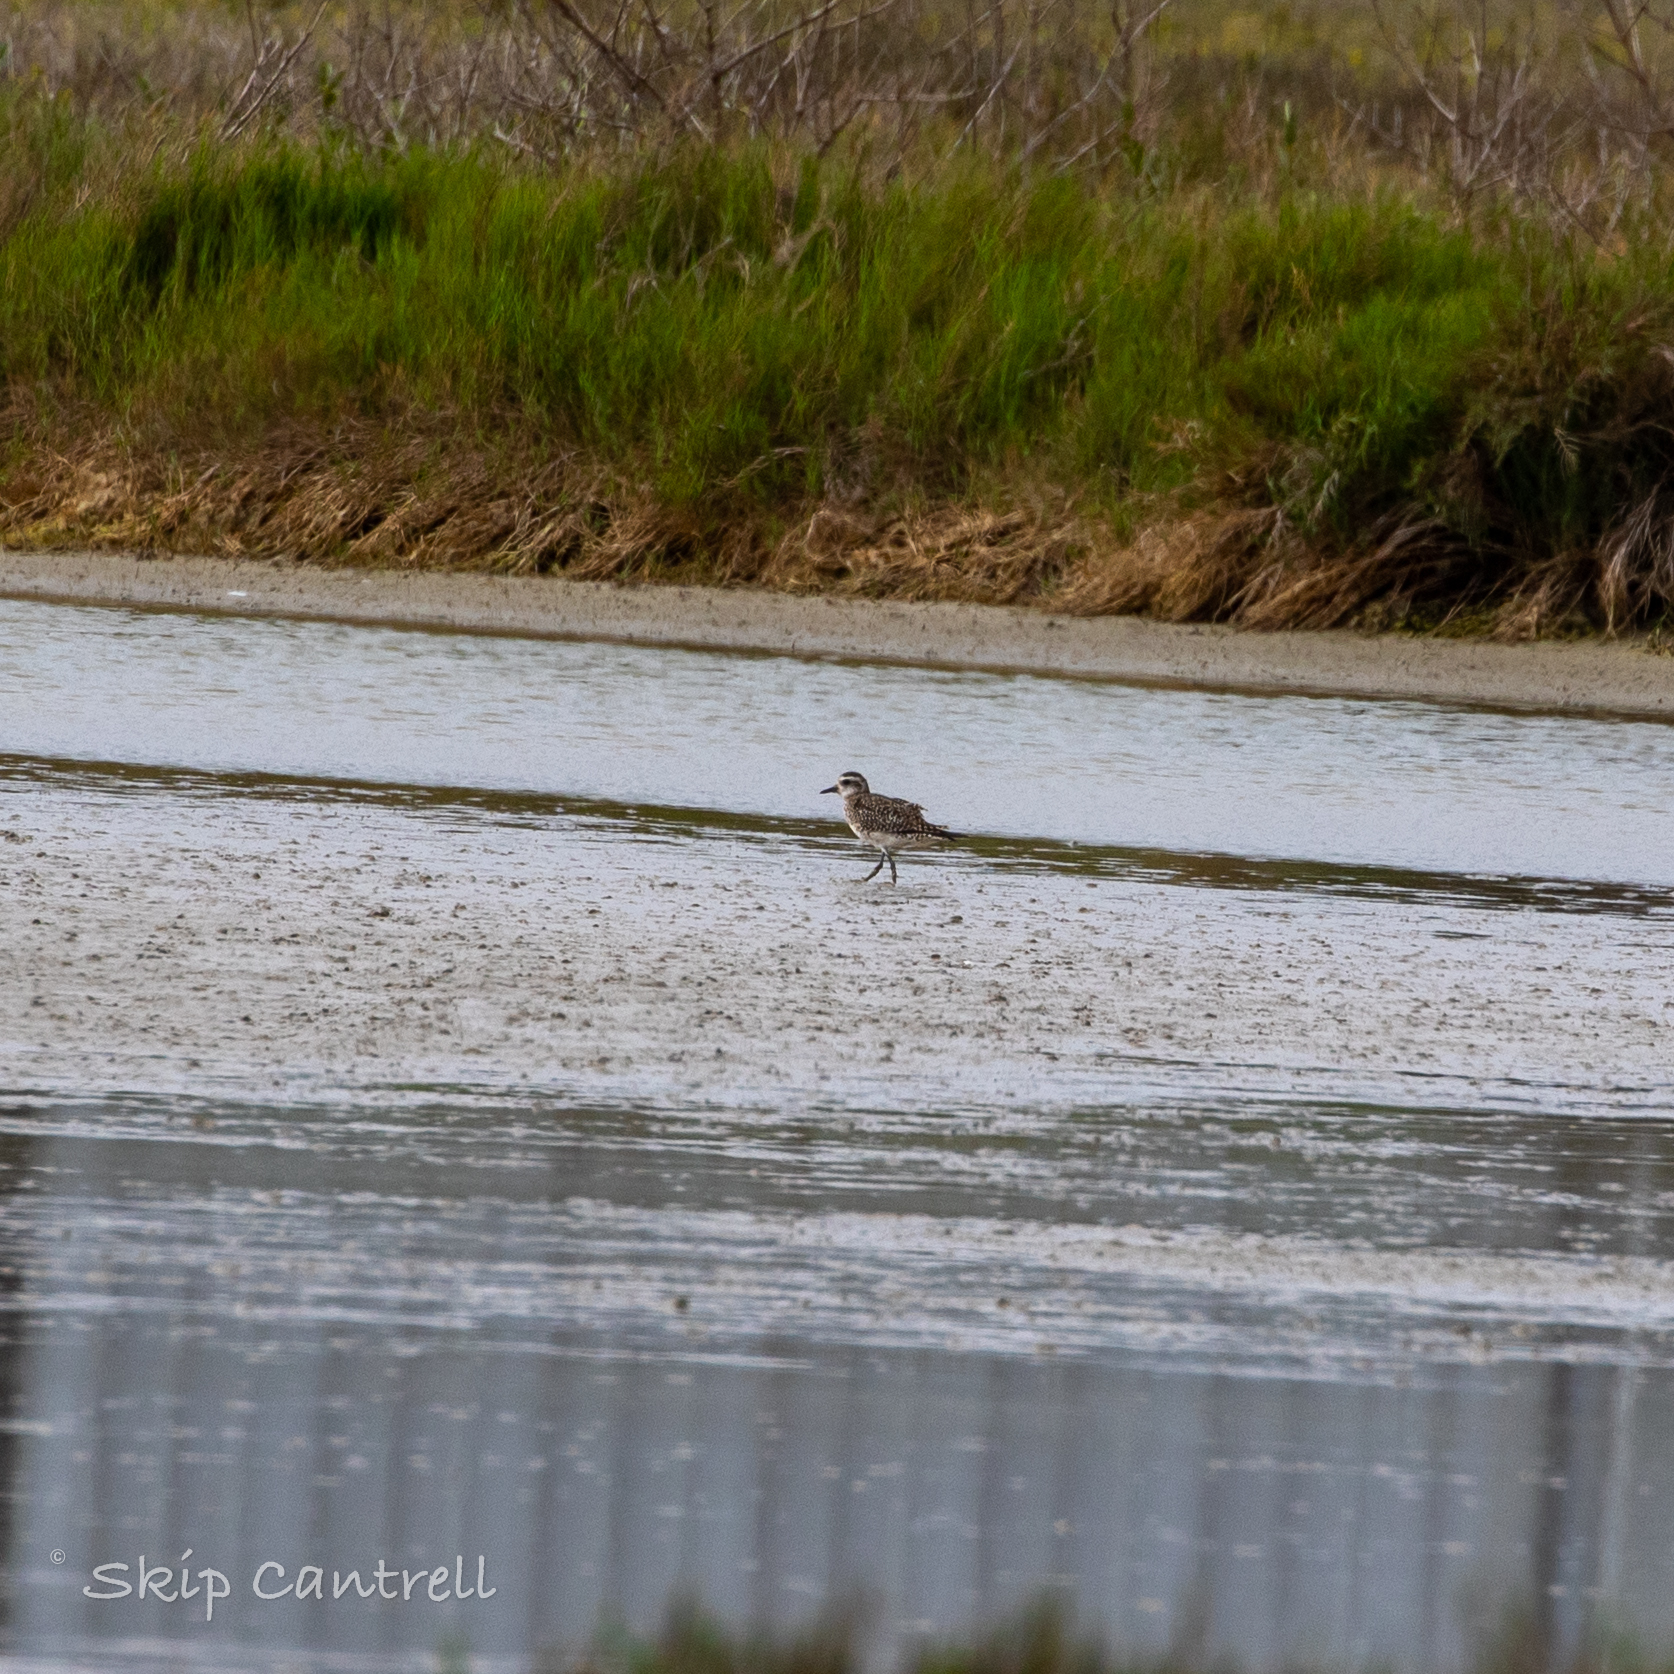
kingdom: Animalia
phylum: Chordata
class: Aves
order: Charadriiformes
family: Charadriidae
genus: Pluvialis
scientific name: Pluvialis dominica
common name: American golden plover
